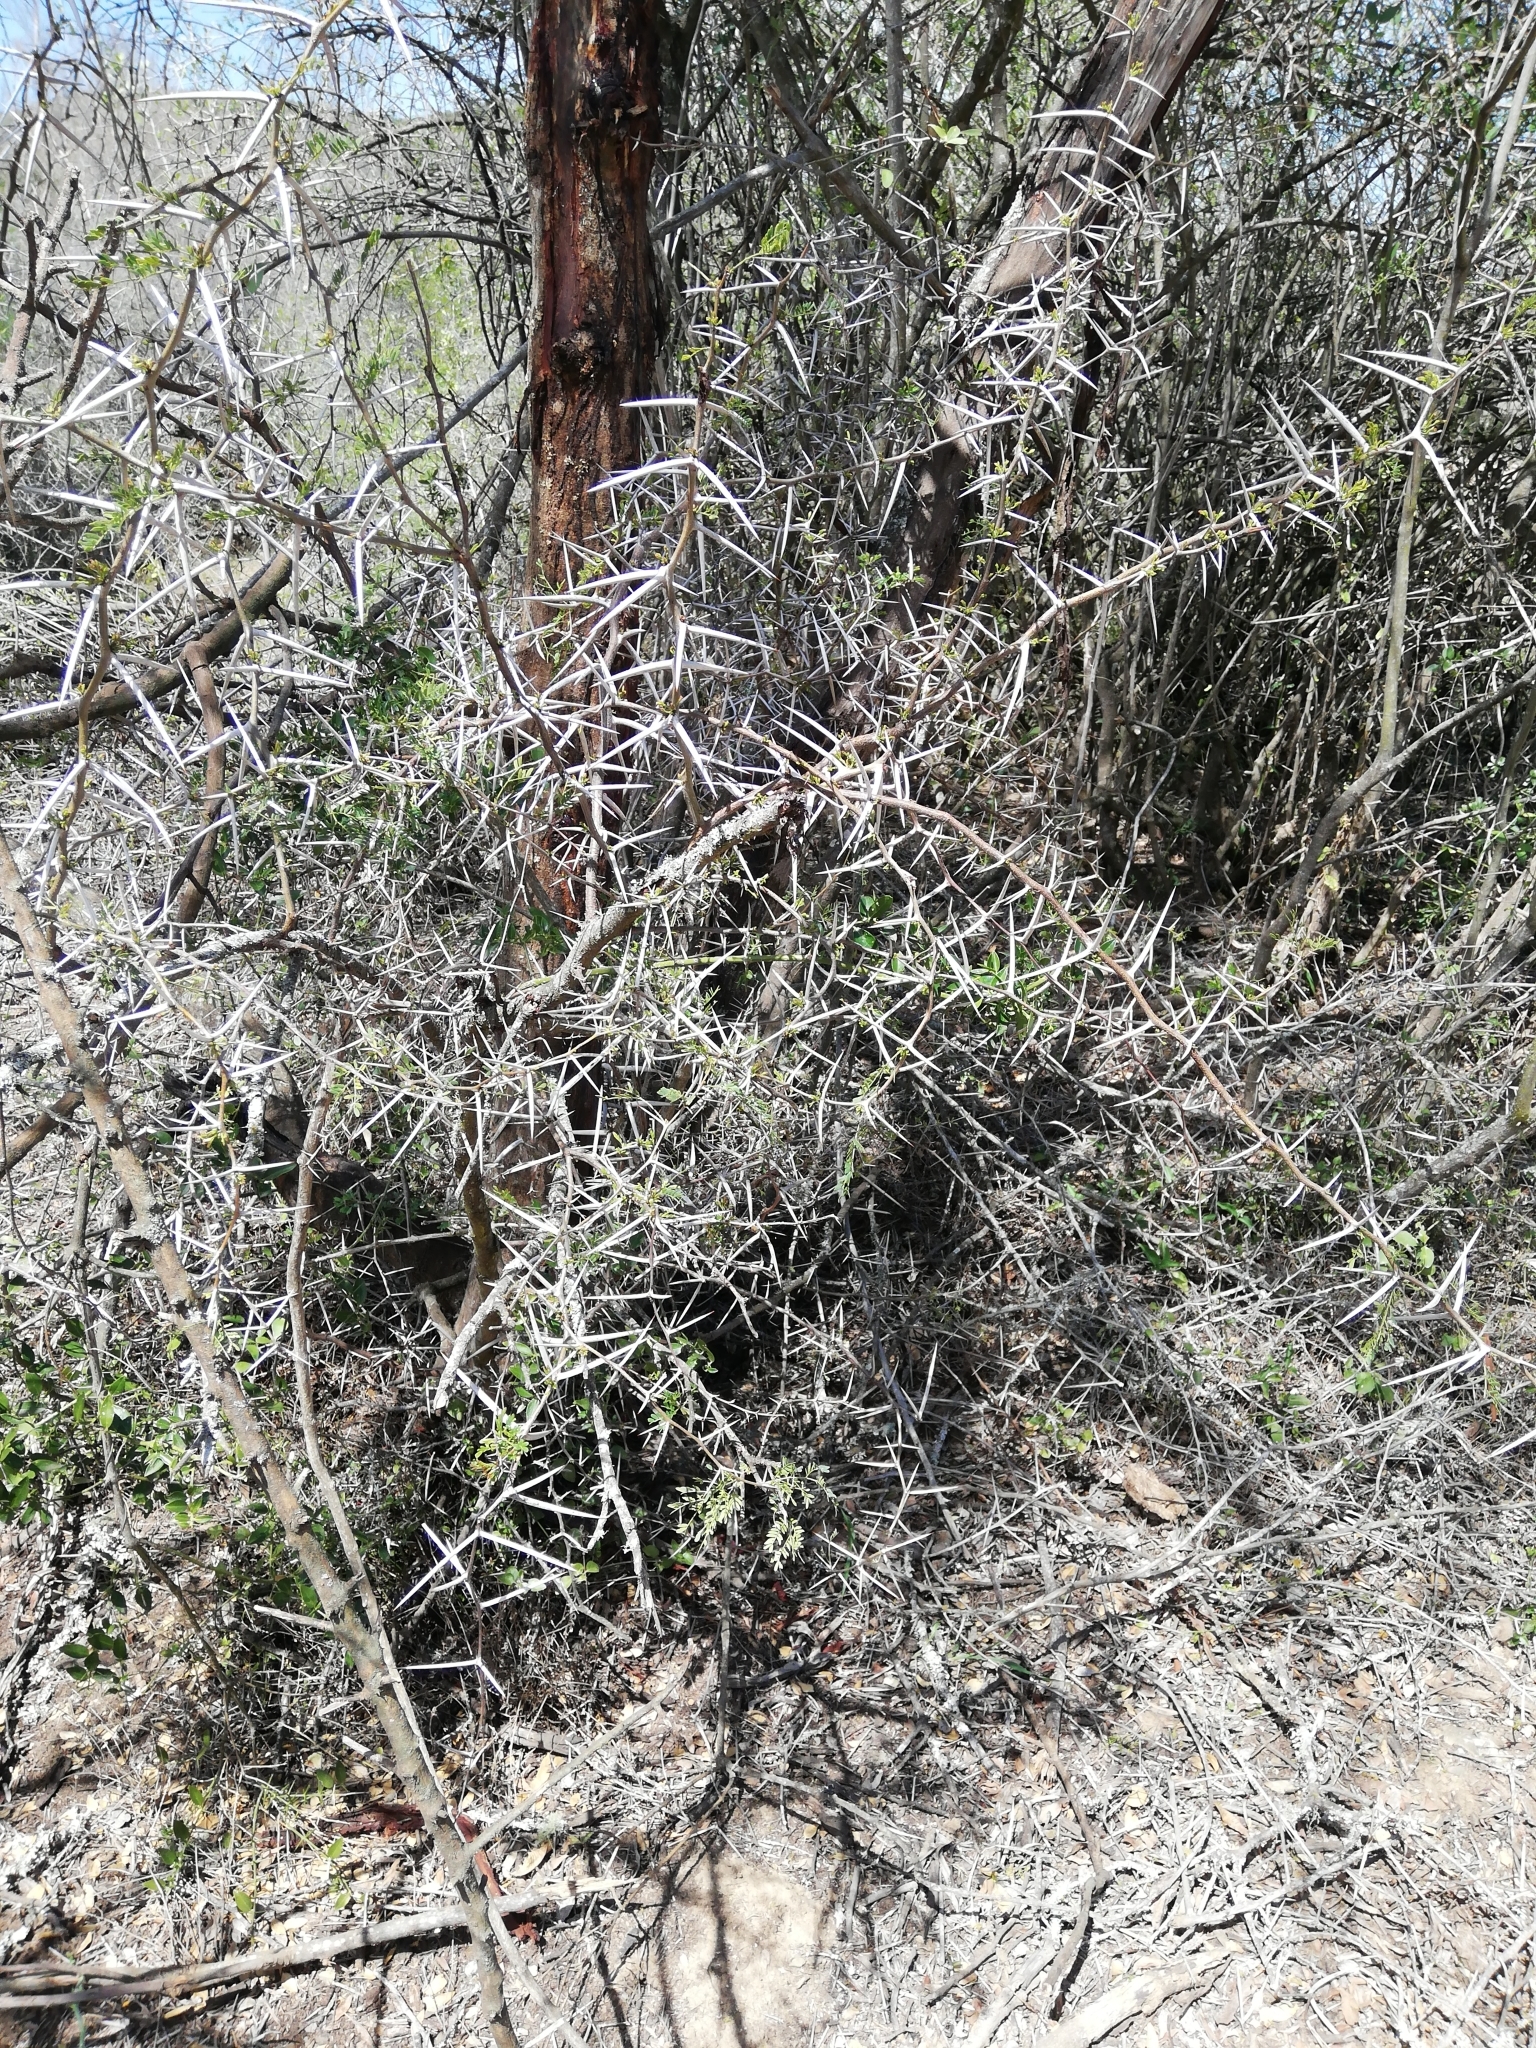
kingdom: Plantae
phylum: Tracheophyta
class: Magnoliopsida
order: Fabales
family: Fabaceae
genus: Vachellia
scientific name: Vachellia karroo
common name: Sweet thorn
